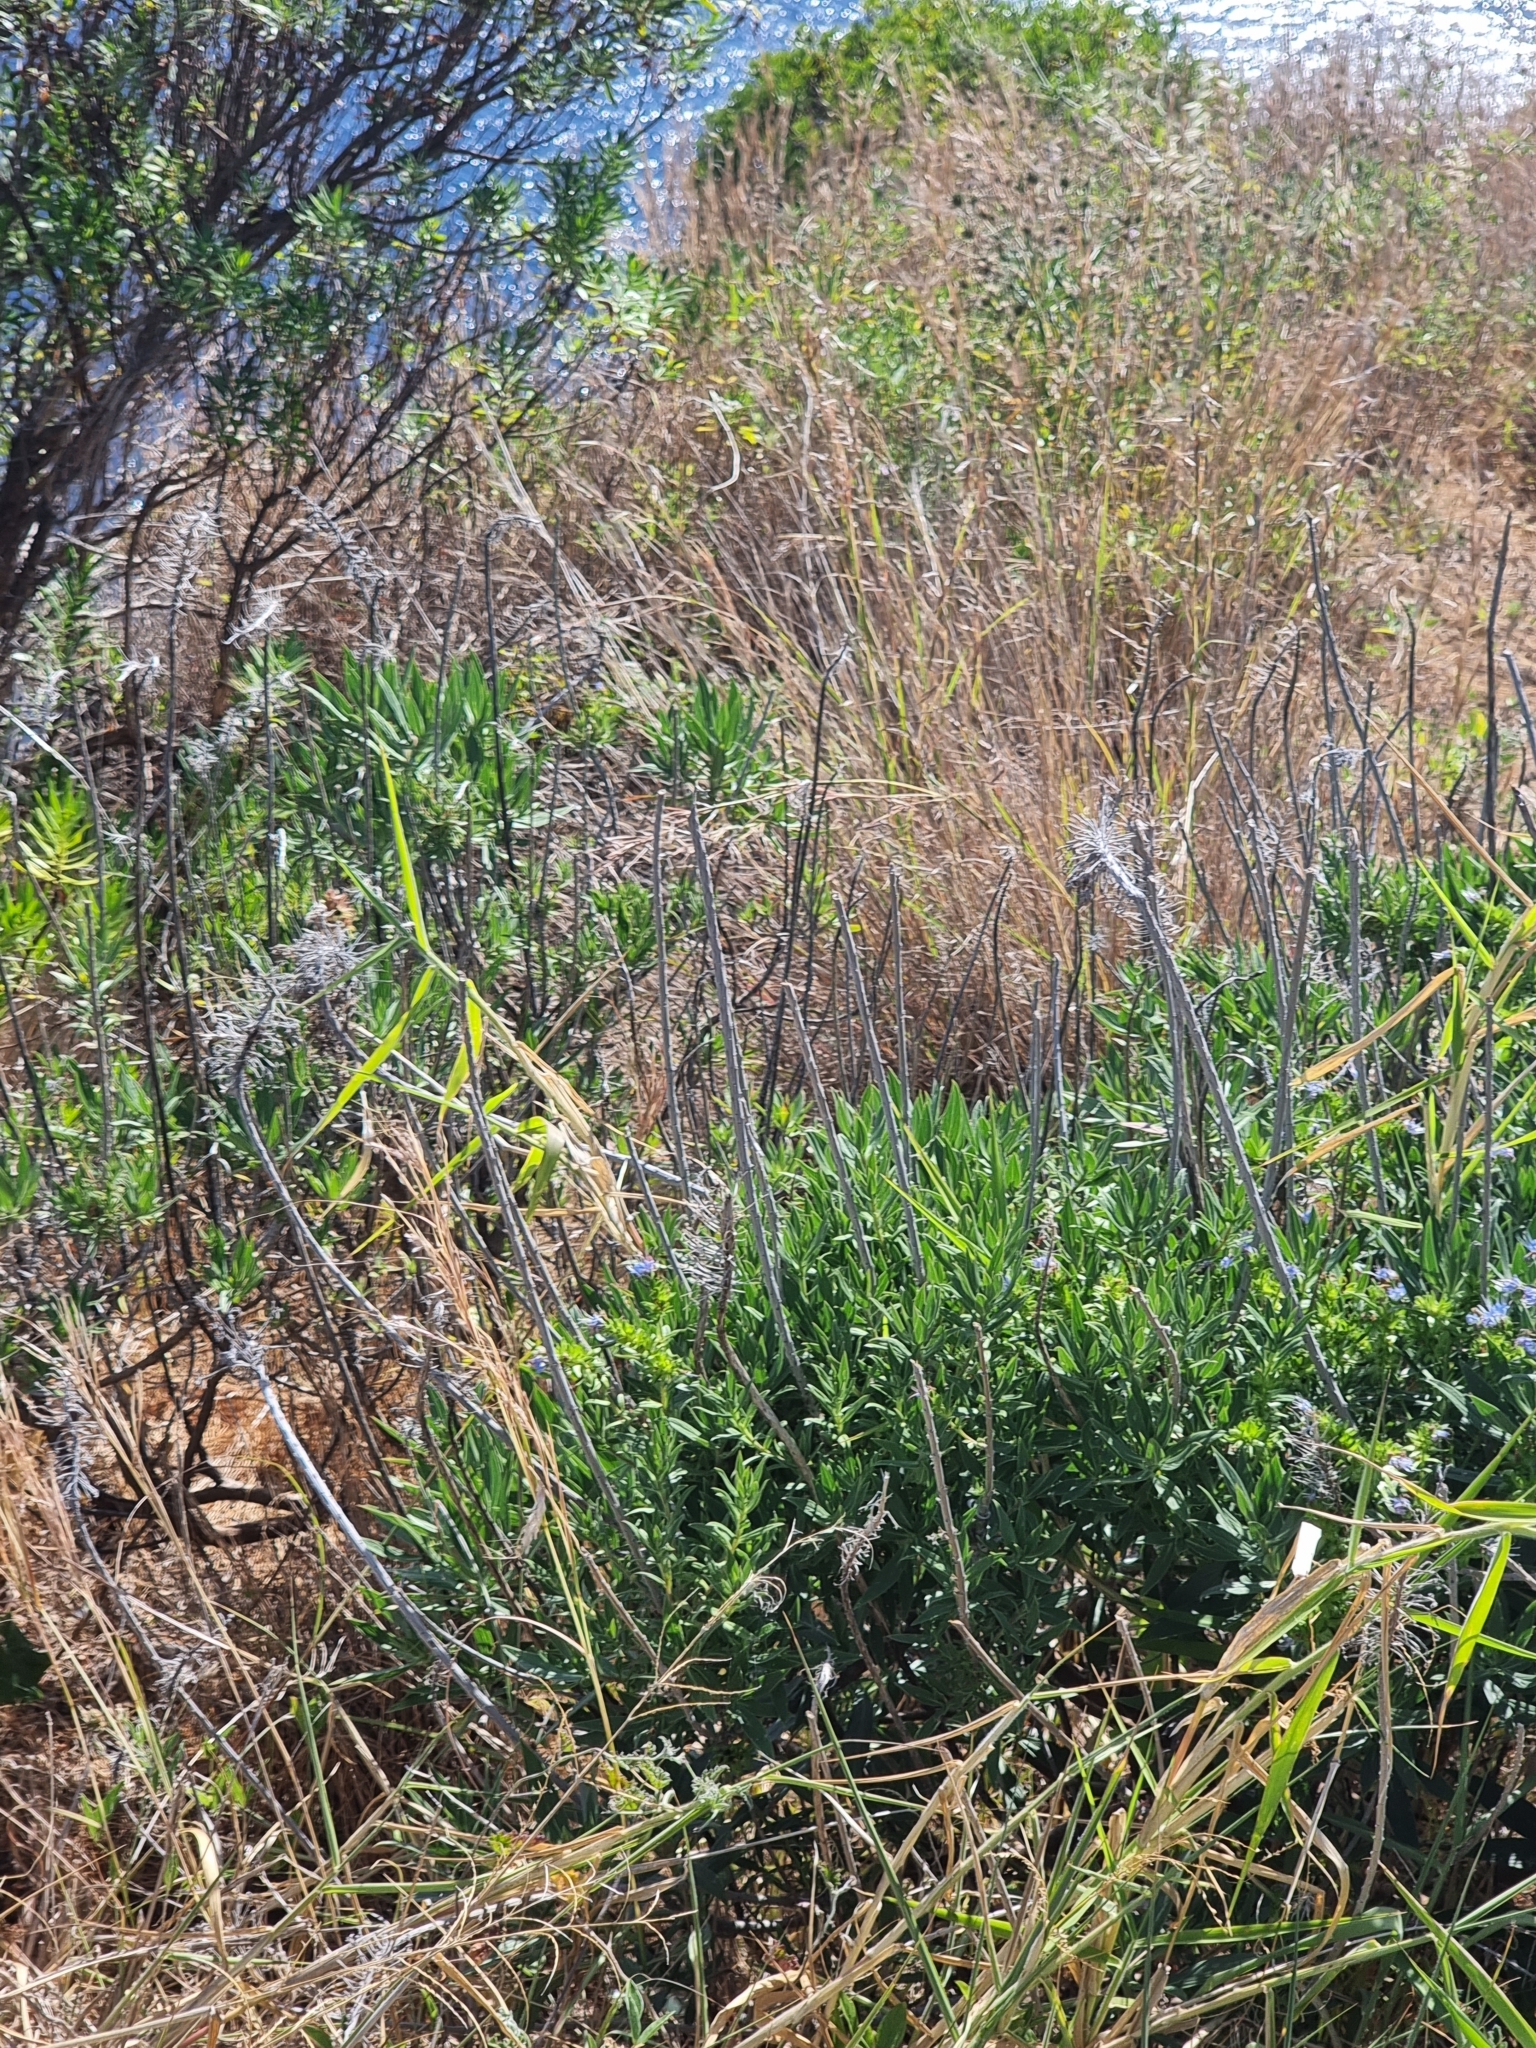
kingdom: Plantae
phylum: Tracheophyta
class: Magnoliopsida
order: Boraginales
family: Boraginaceae
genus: Echium
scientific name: Echium nervosum
